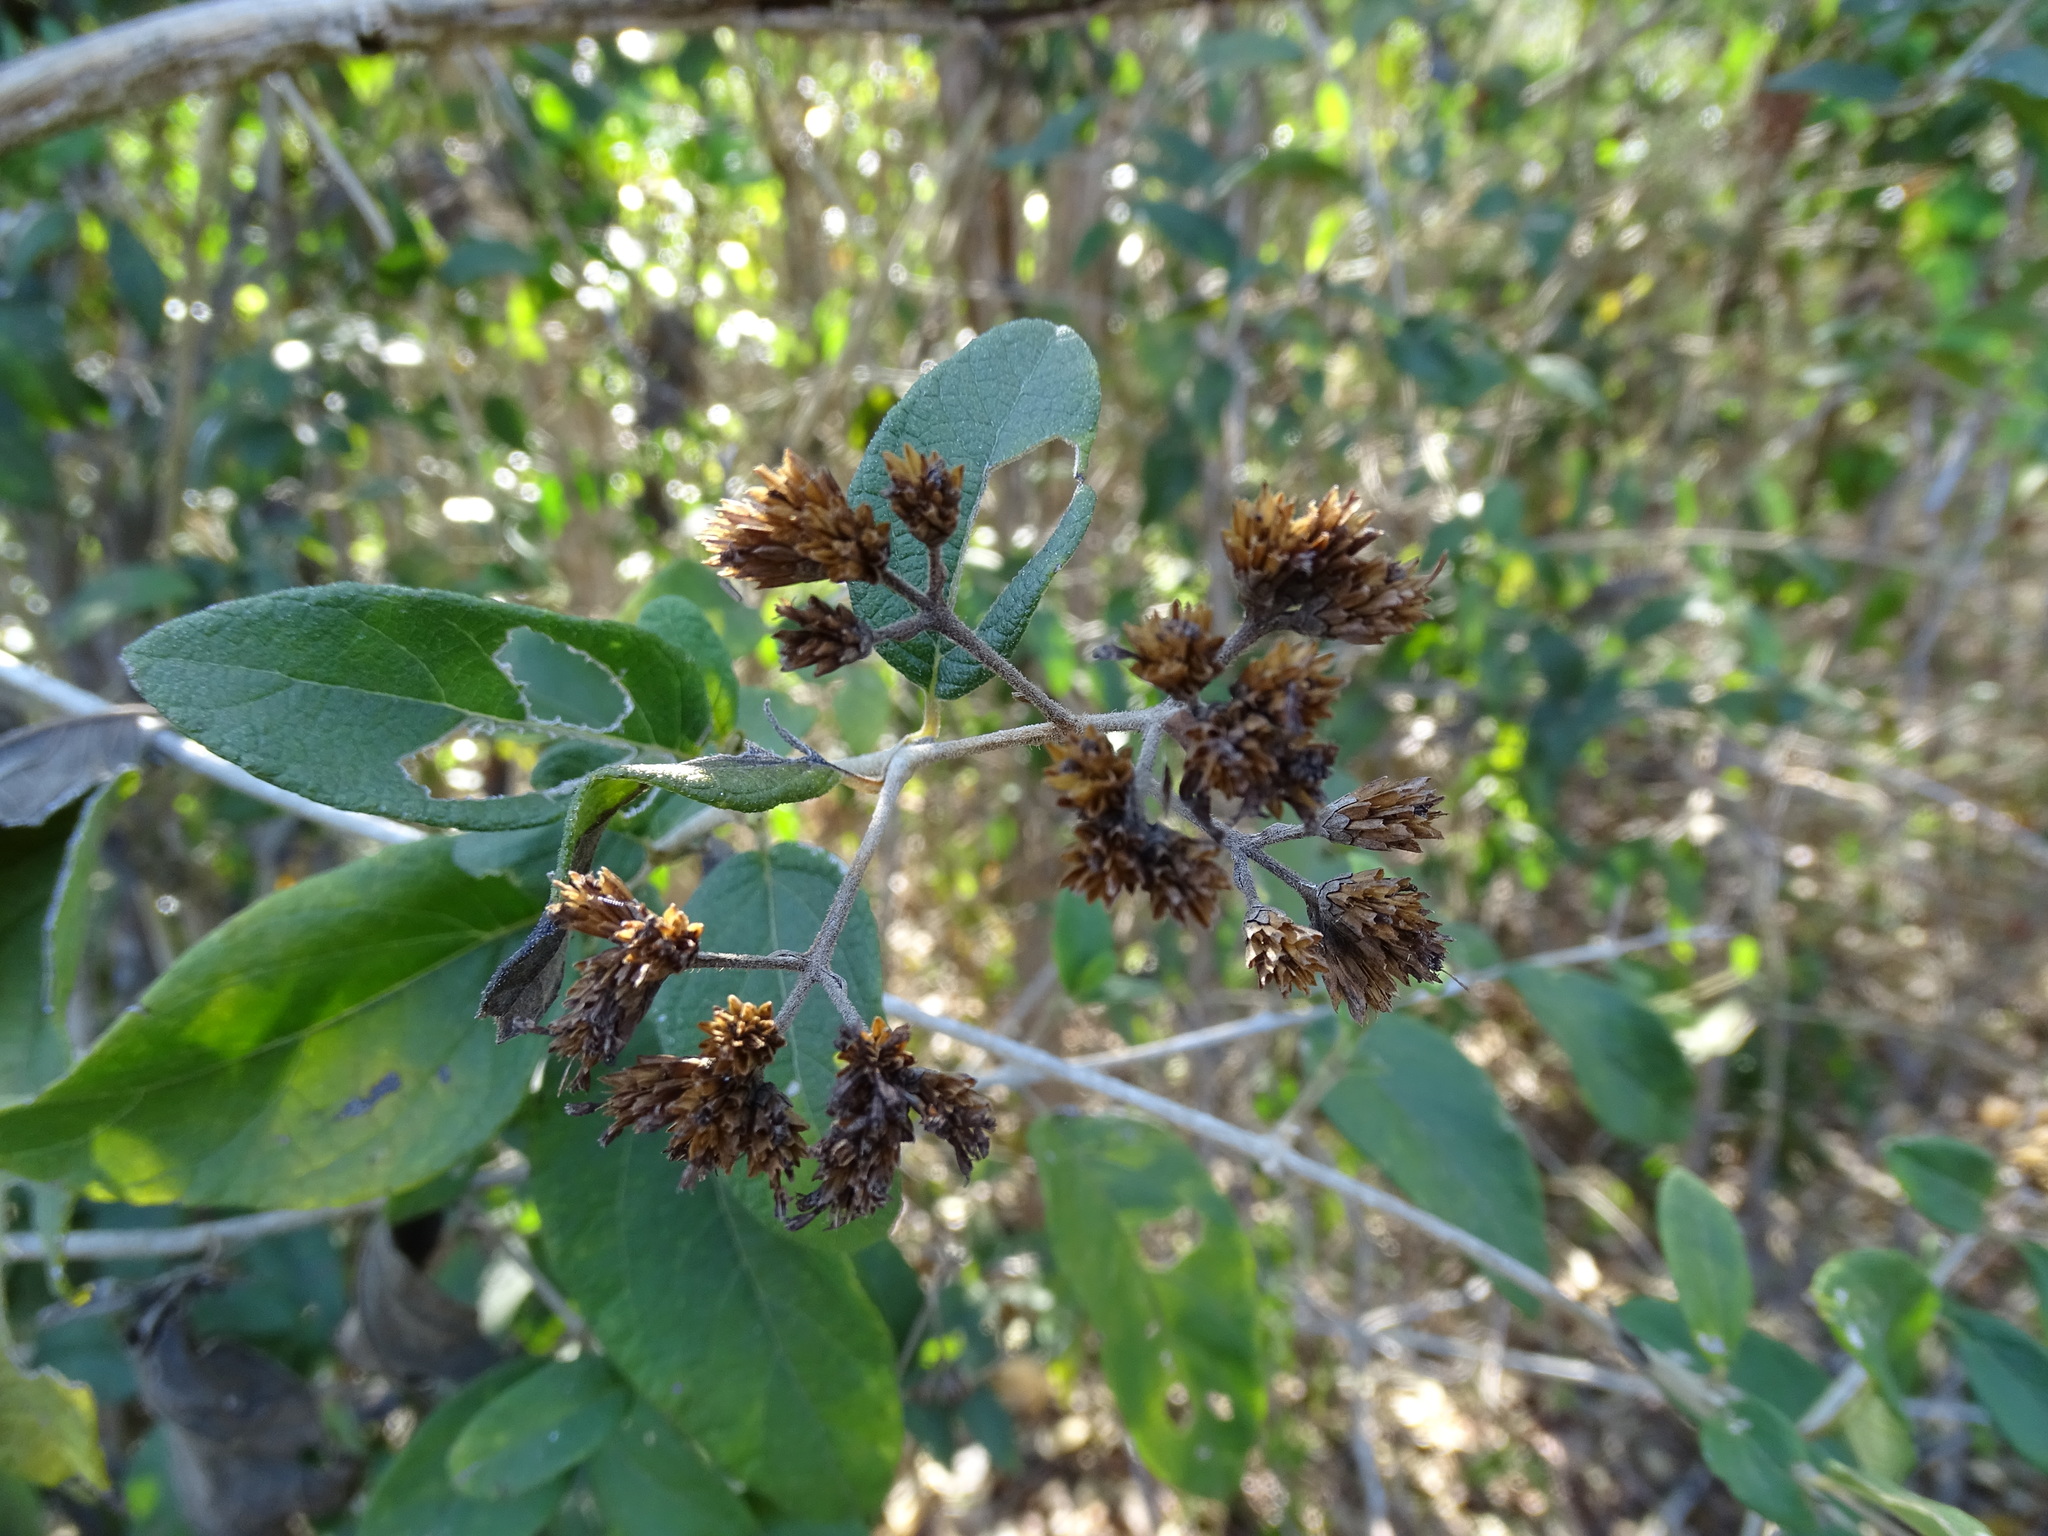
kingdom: Plantae
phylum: Tracheophyta
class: Magnoliopsida
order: Asterales
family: Asteraceae
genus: Otopappus
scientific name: Otopappus guatemalensis
